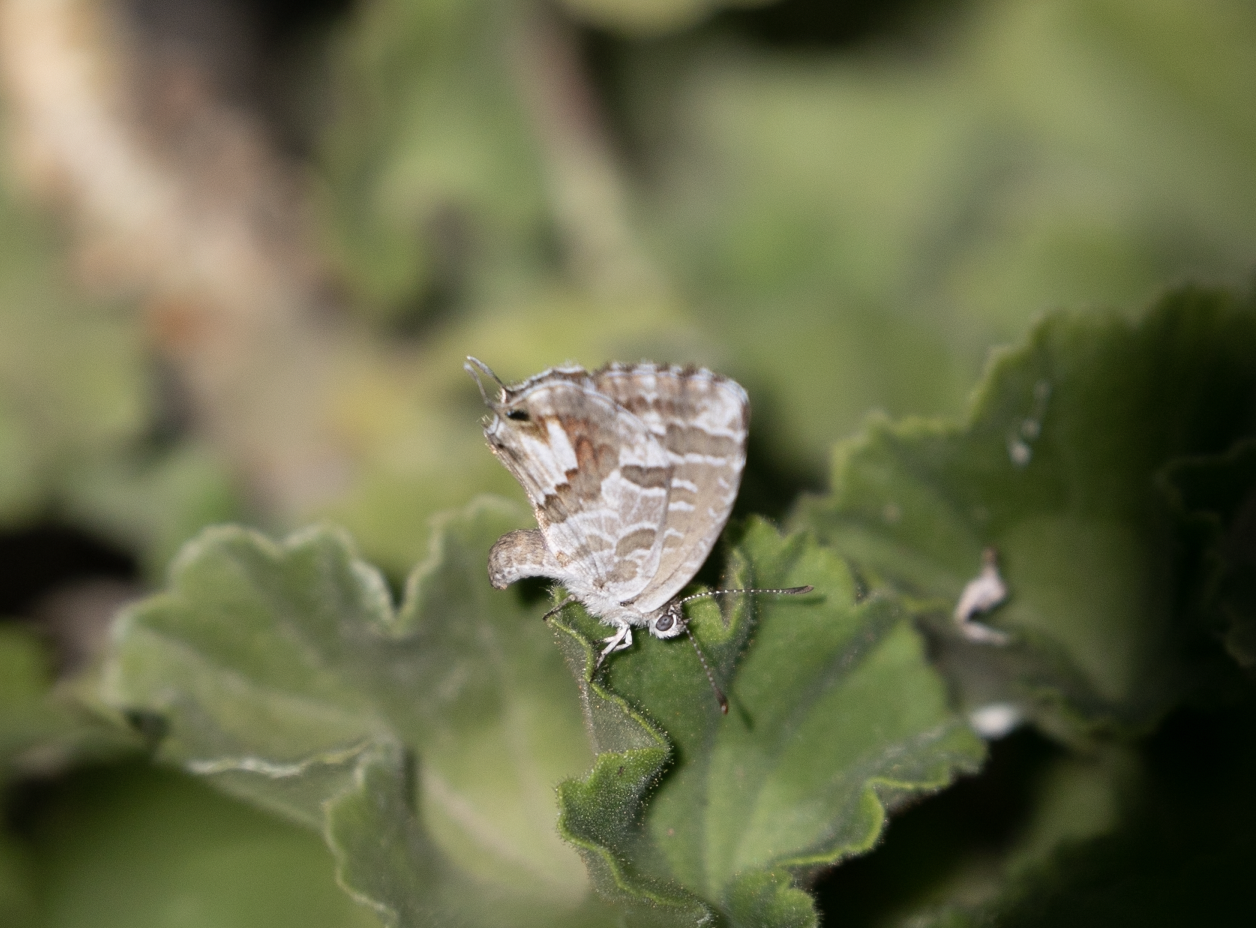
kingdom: Animalia
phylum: Arthropoda
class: Insecta
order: Lepidoptera
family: Lycaenidae
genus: Cacyreus
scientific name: Cacyreus marshalli
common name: Geranium bronze
